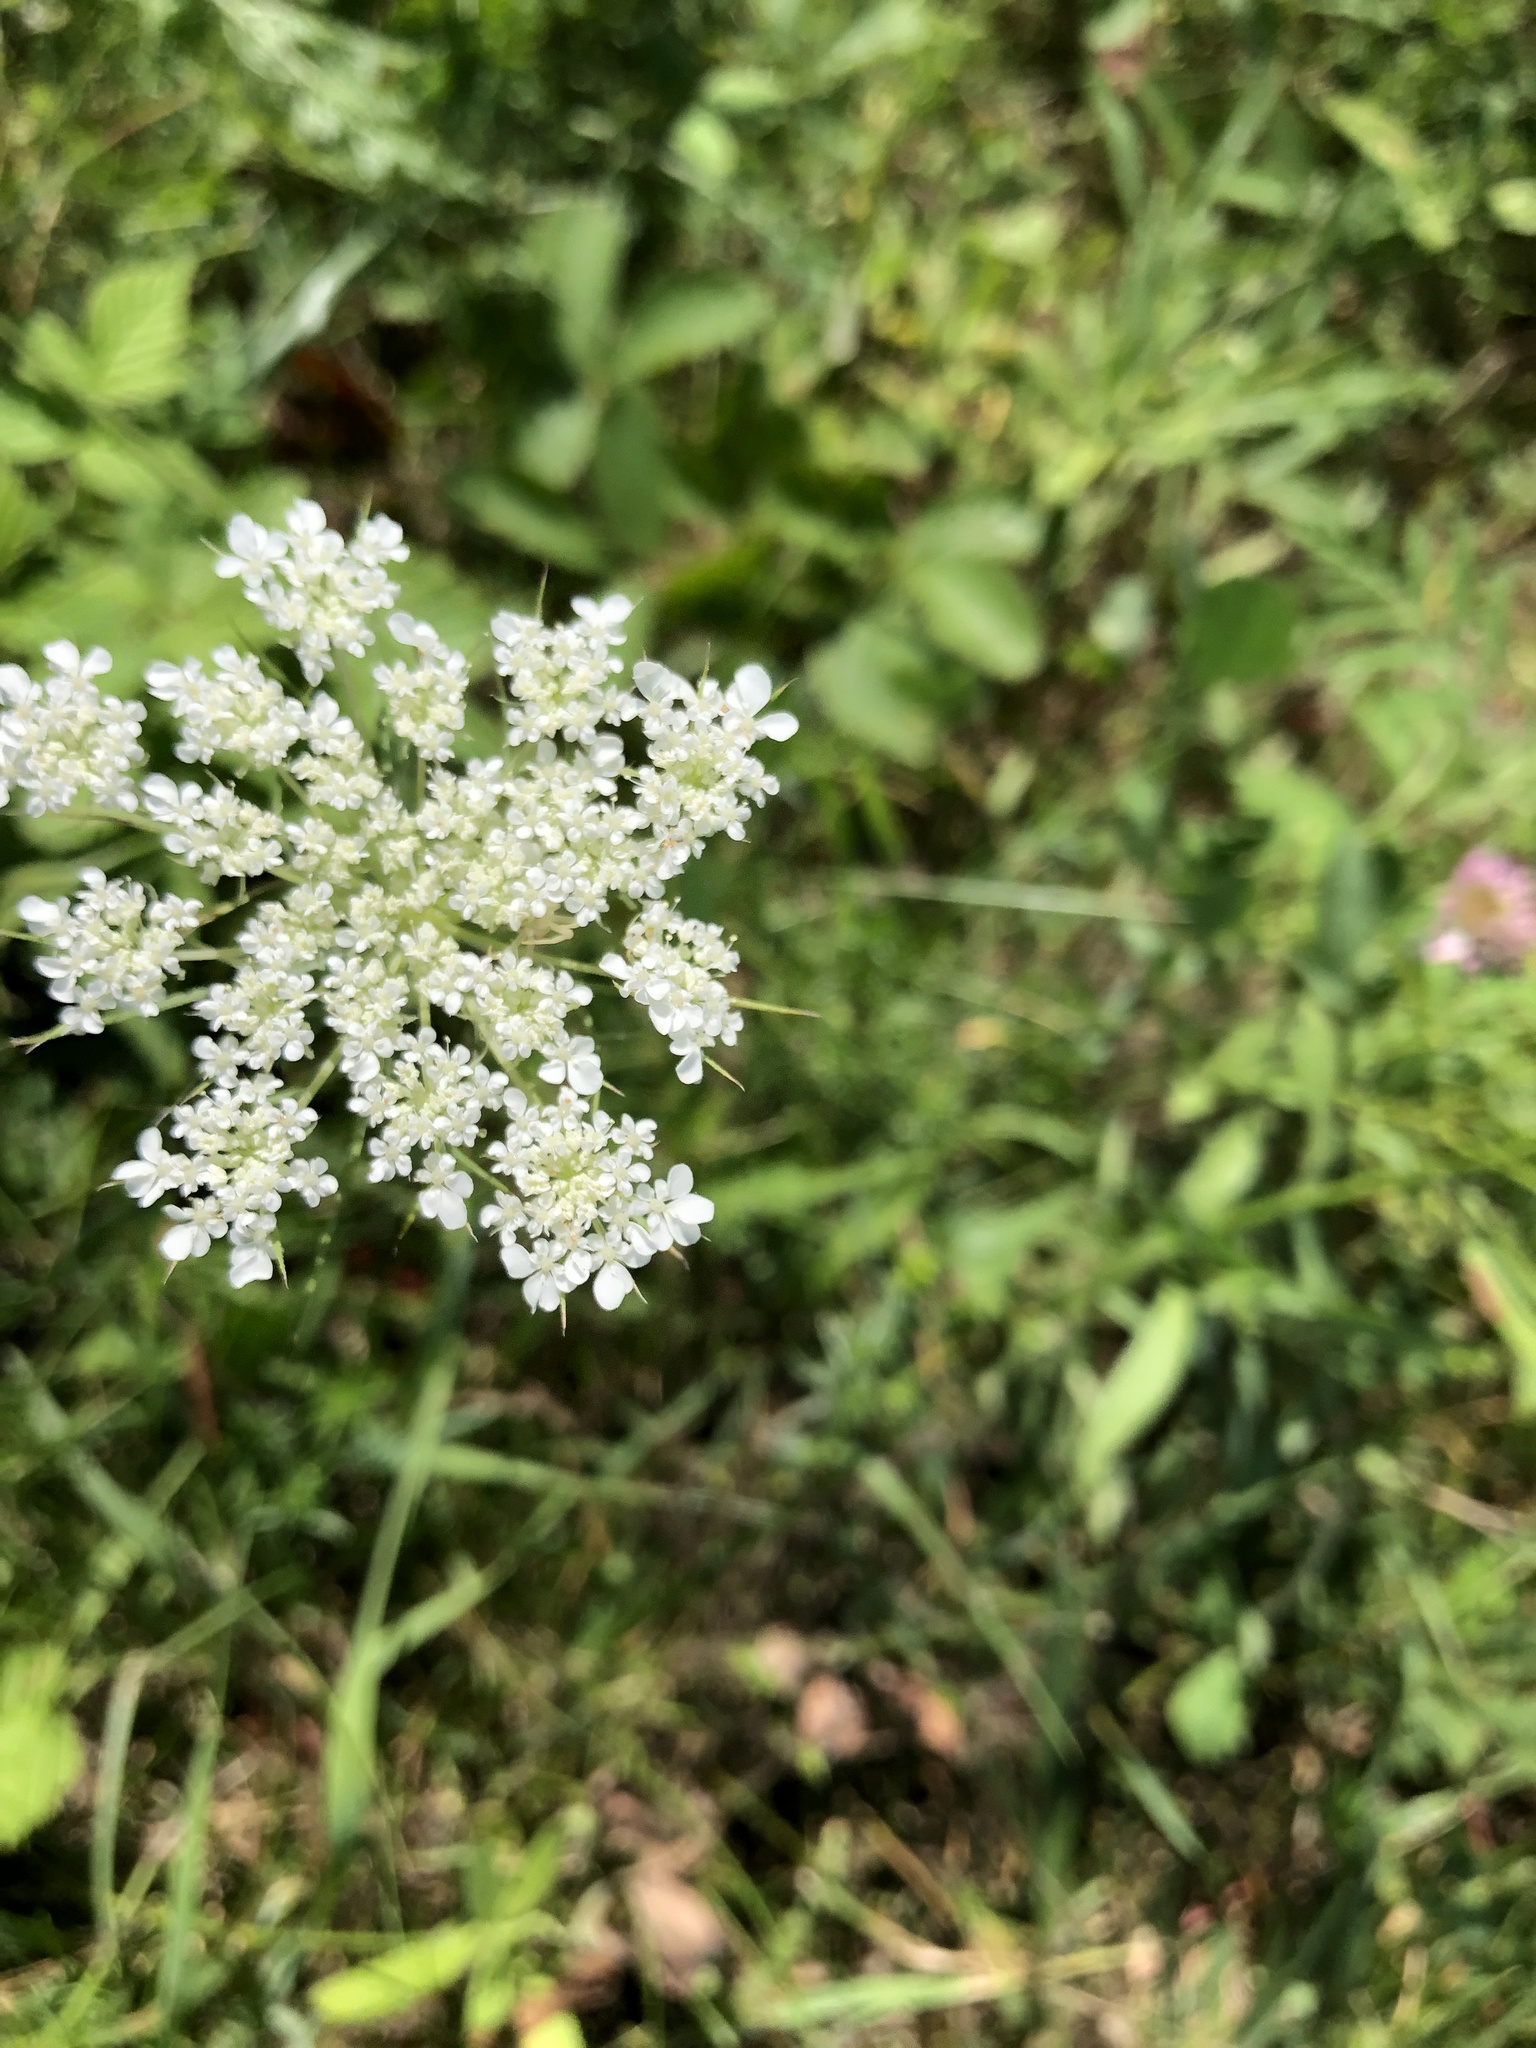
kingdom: Plantae
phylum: Tracheophyta
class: Magnoliopsida
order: Apiales
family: Apiaceae
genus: Daucus
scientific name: Daucus carota
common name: Wild carrot
